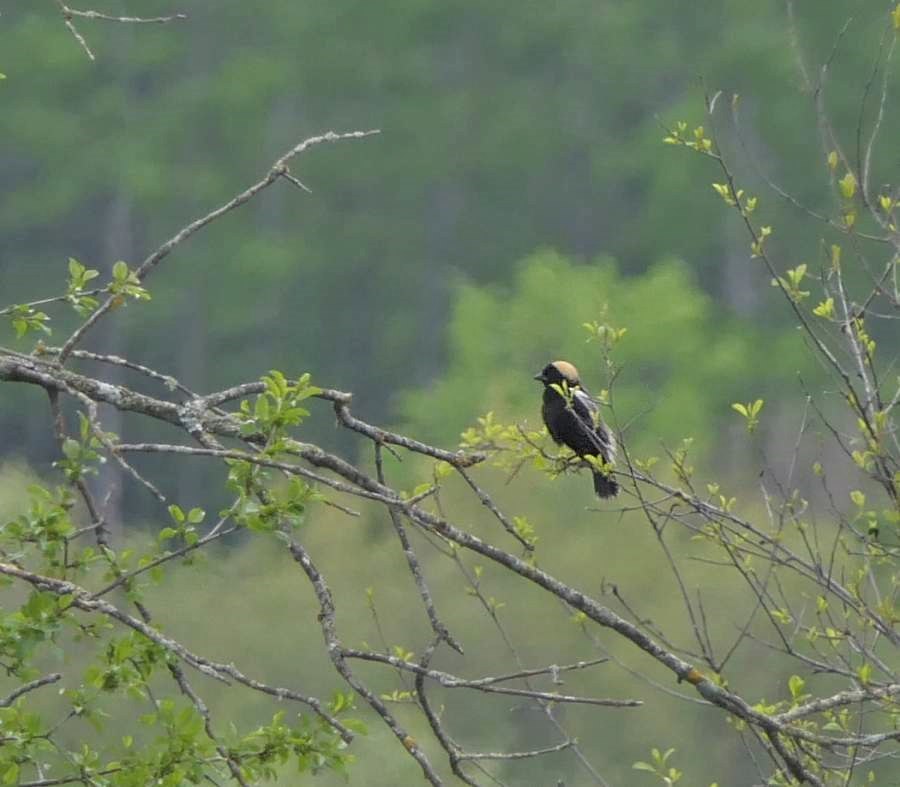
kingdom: Animalia
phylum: Chordata
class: Aves
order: Passeriformes
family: Icteridae
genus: Dolichonyx
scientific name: Dolichonyx oryzivorus
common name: Bobolink
